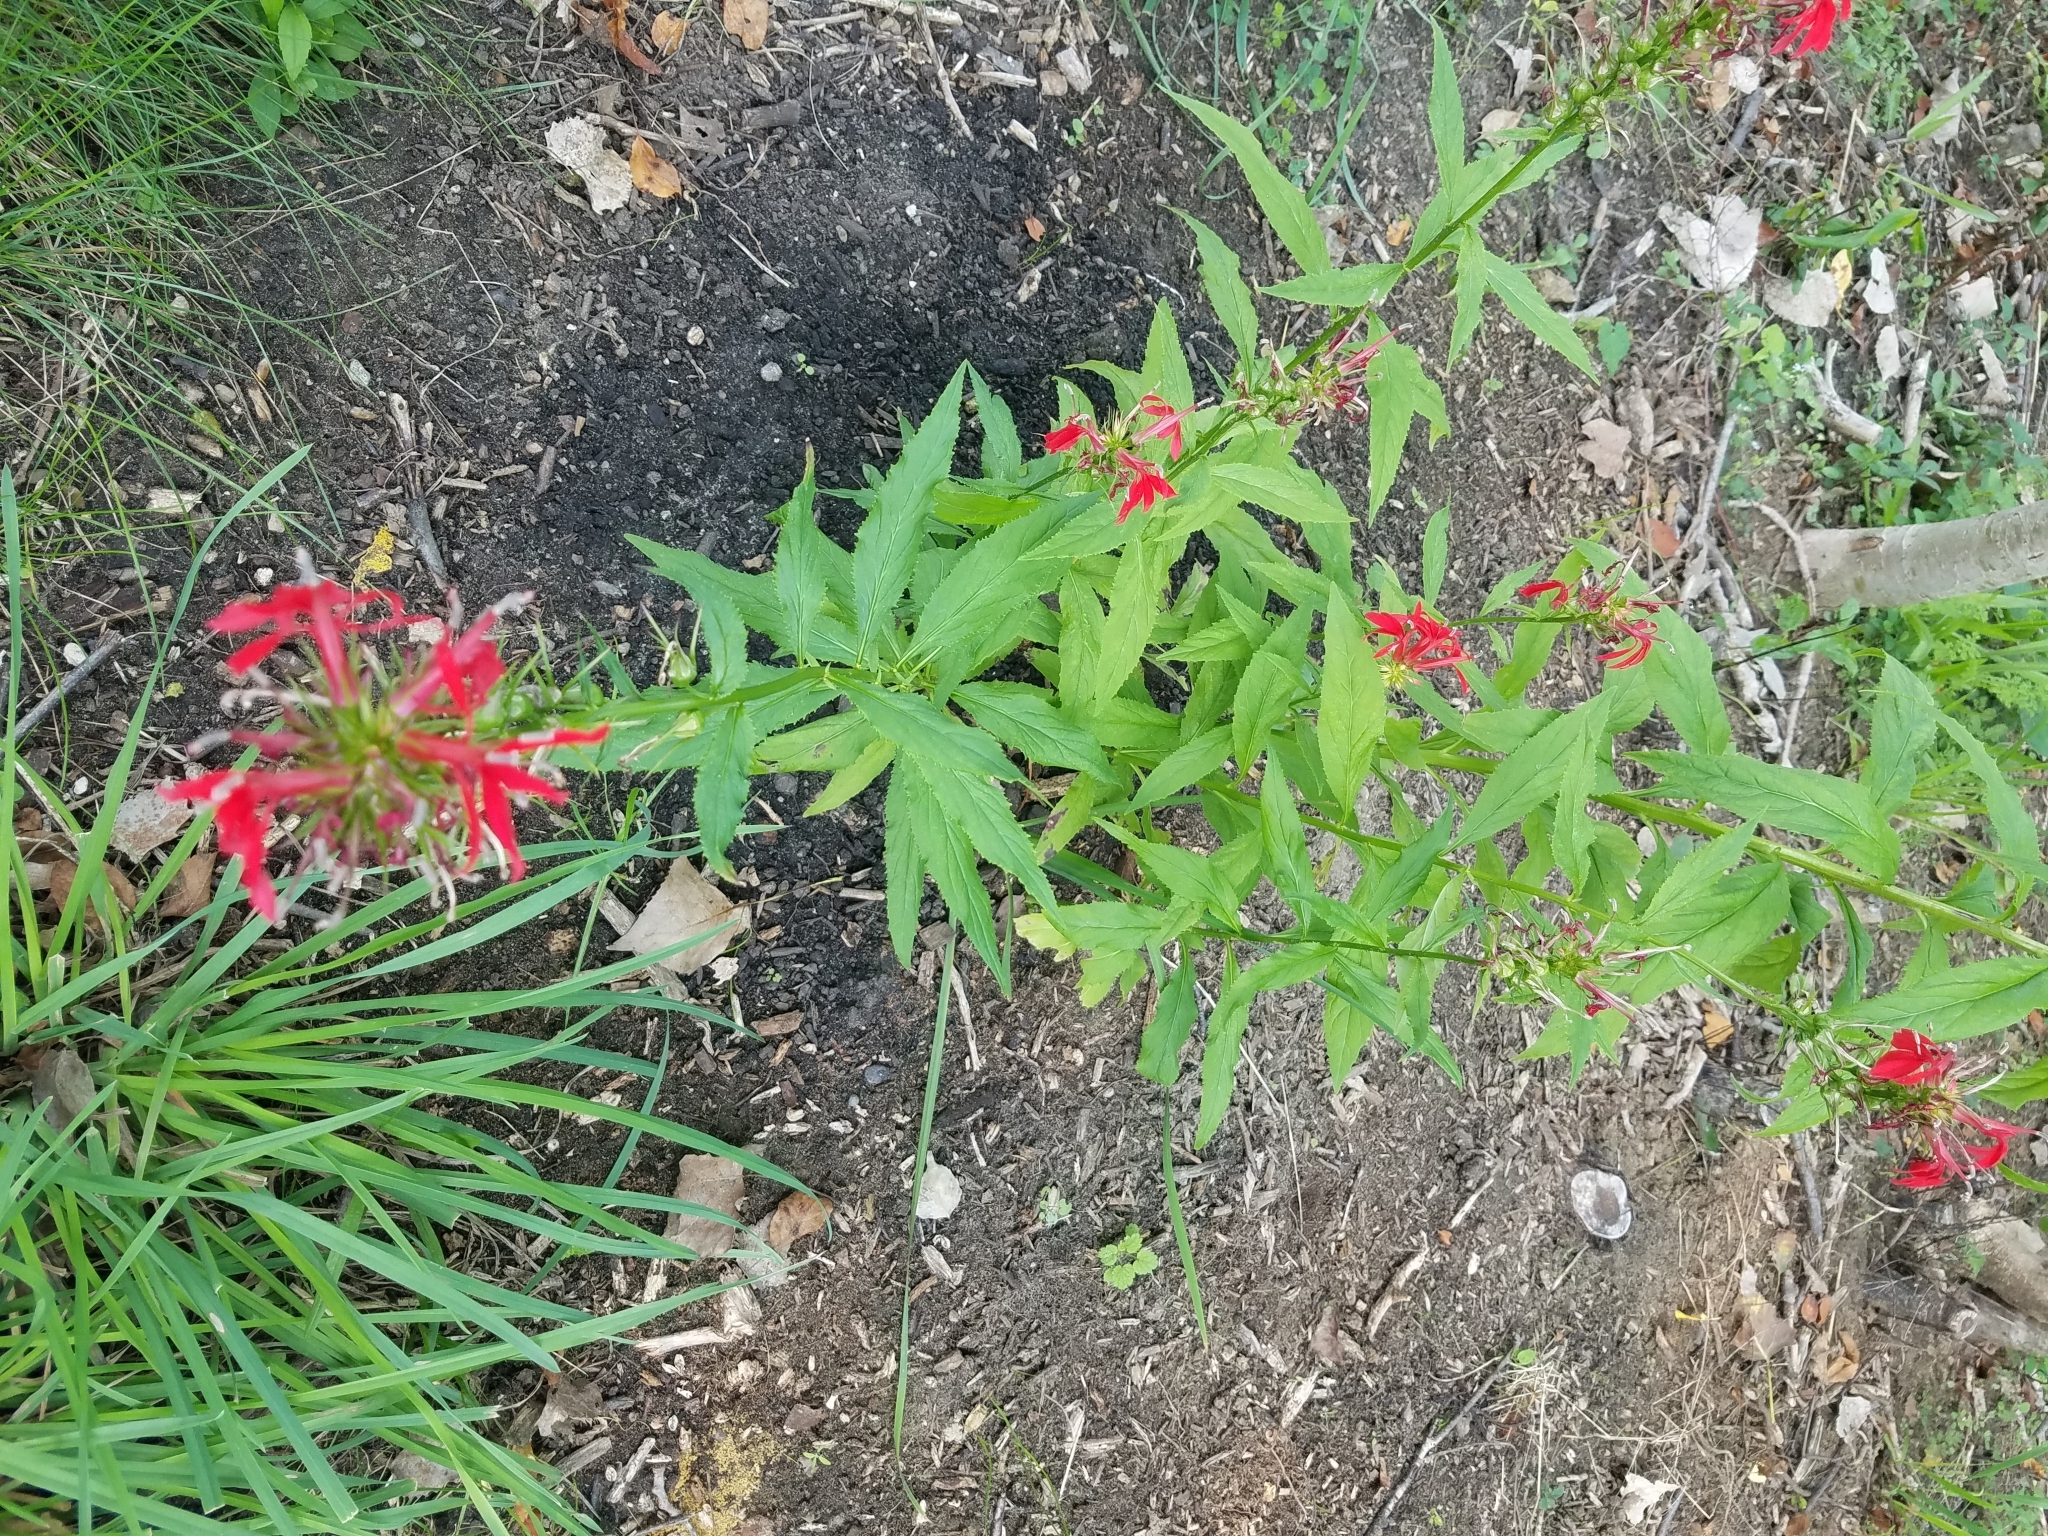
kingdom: Plantae
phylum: Tracheophyta
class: Magnoliopsida
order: Asterales
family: Campanulaceae
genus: Lobelia
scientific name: Lobelia cardinalis
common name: Cardinal flower
